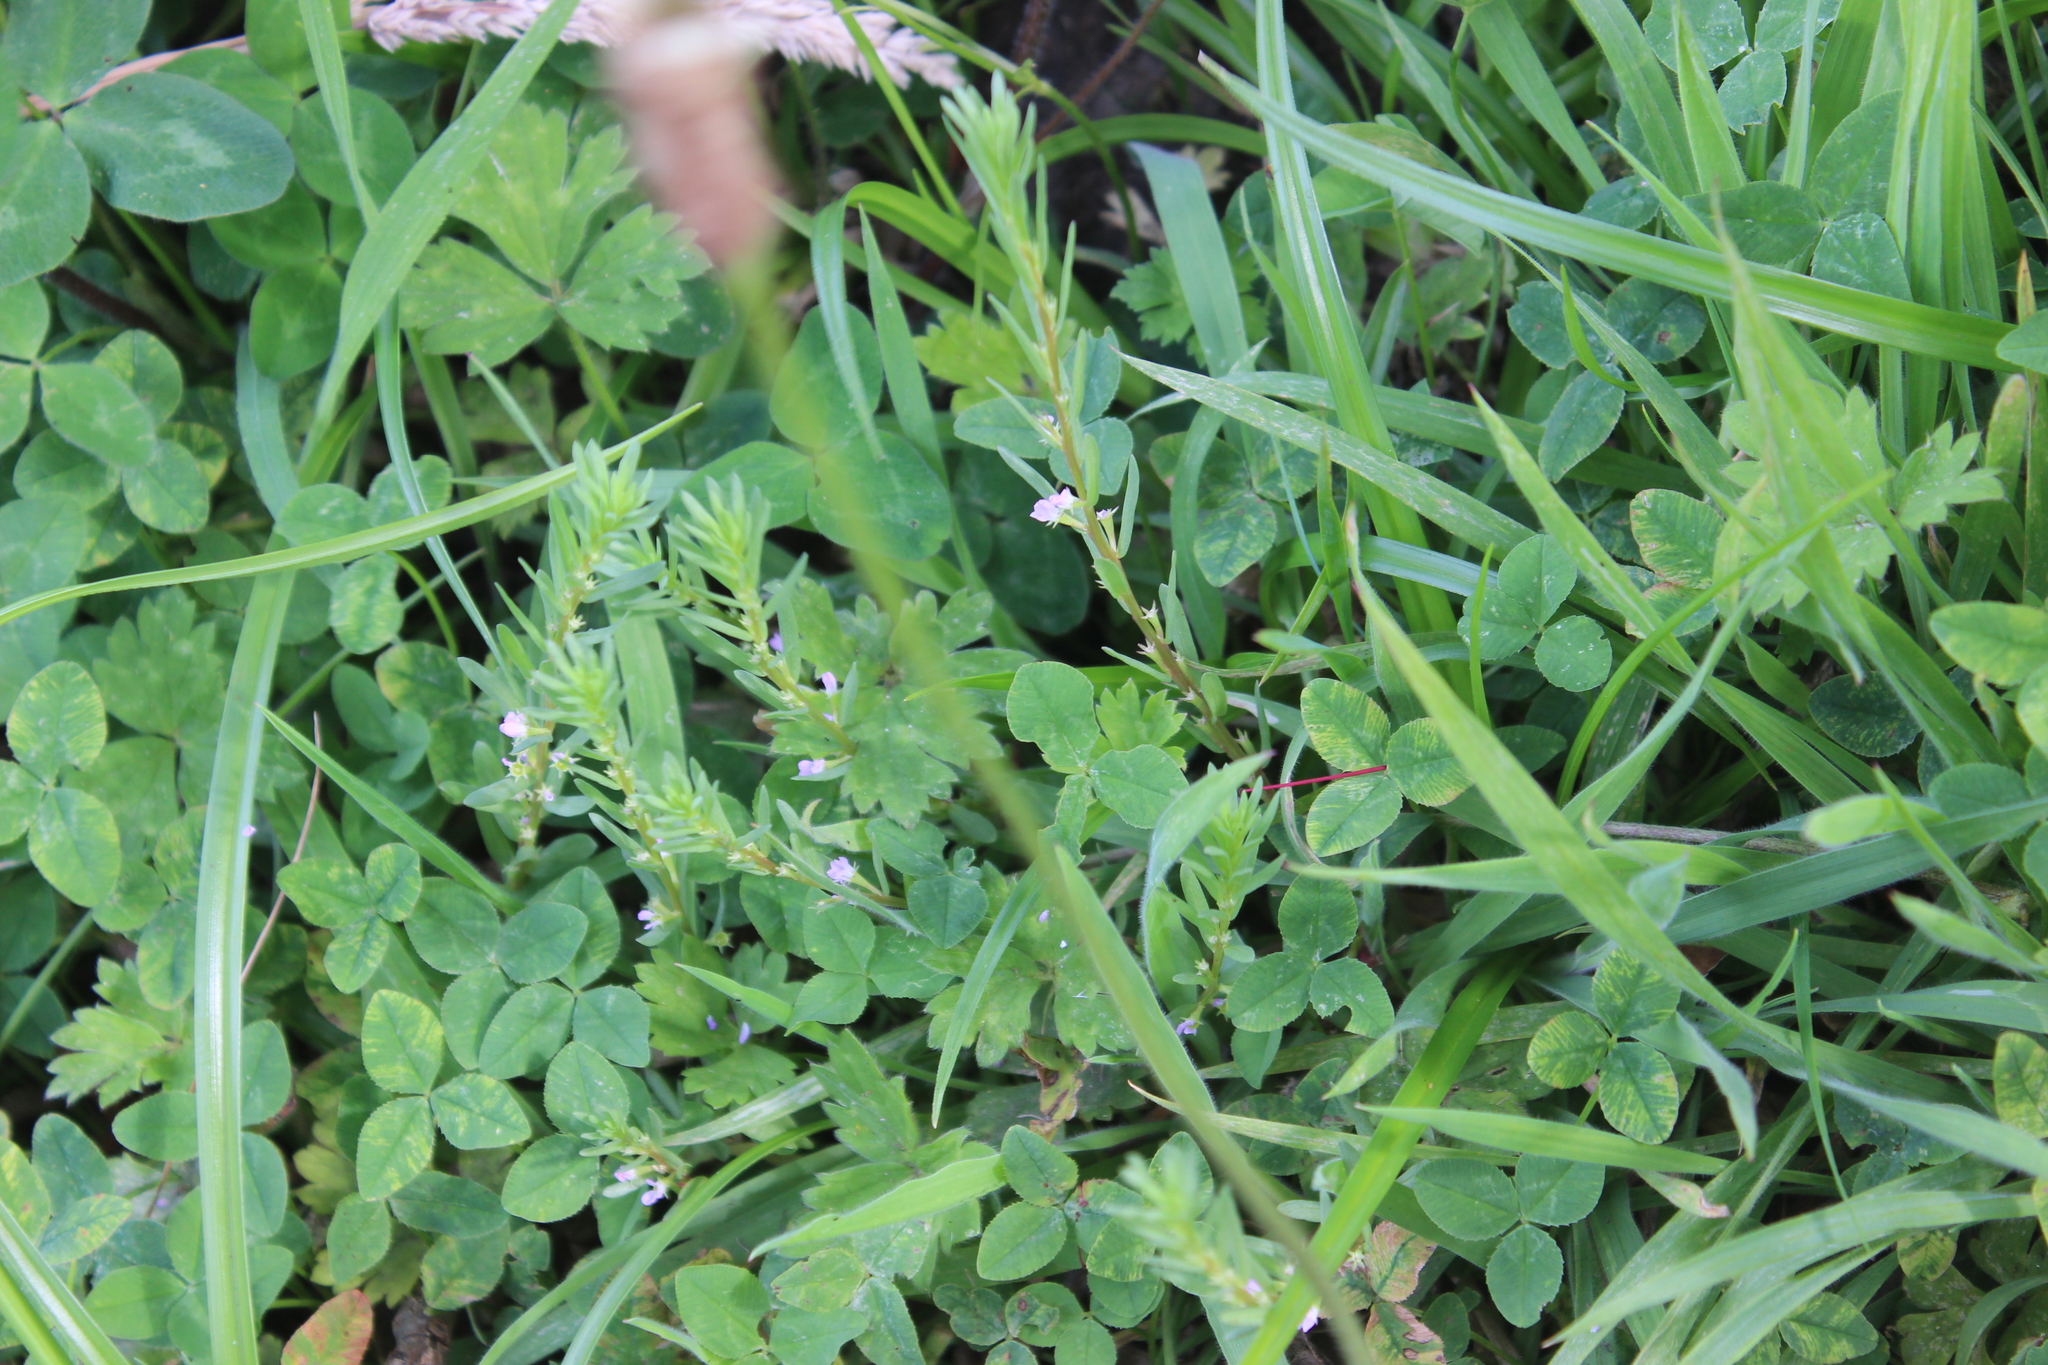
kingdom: Plantae
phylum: Tracheophyta
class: Magnoliopsida
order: Myrtales
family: Lythraceae
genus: Lythrum
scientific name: Lythrum hyssopifolia
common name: Grass-poly
